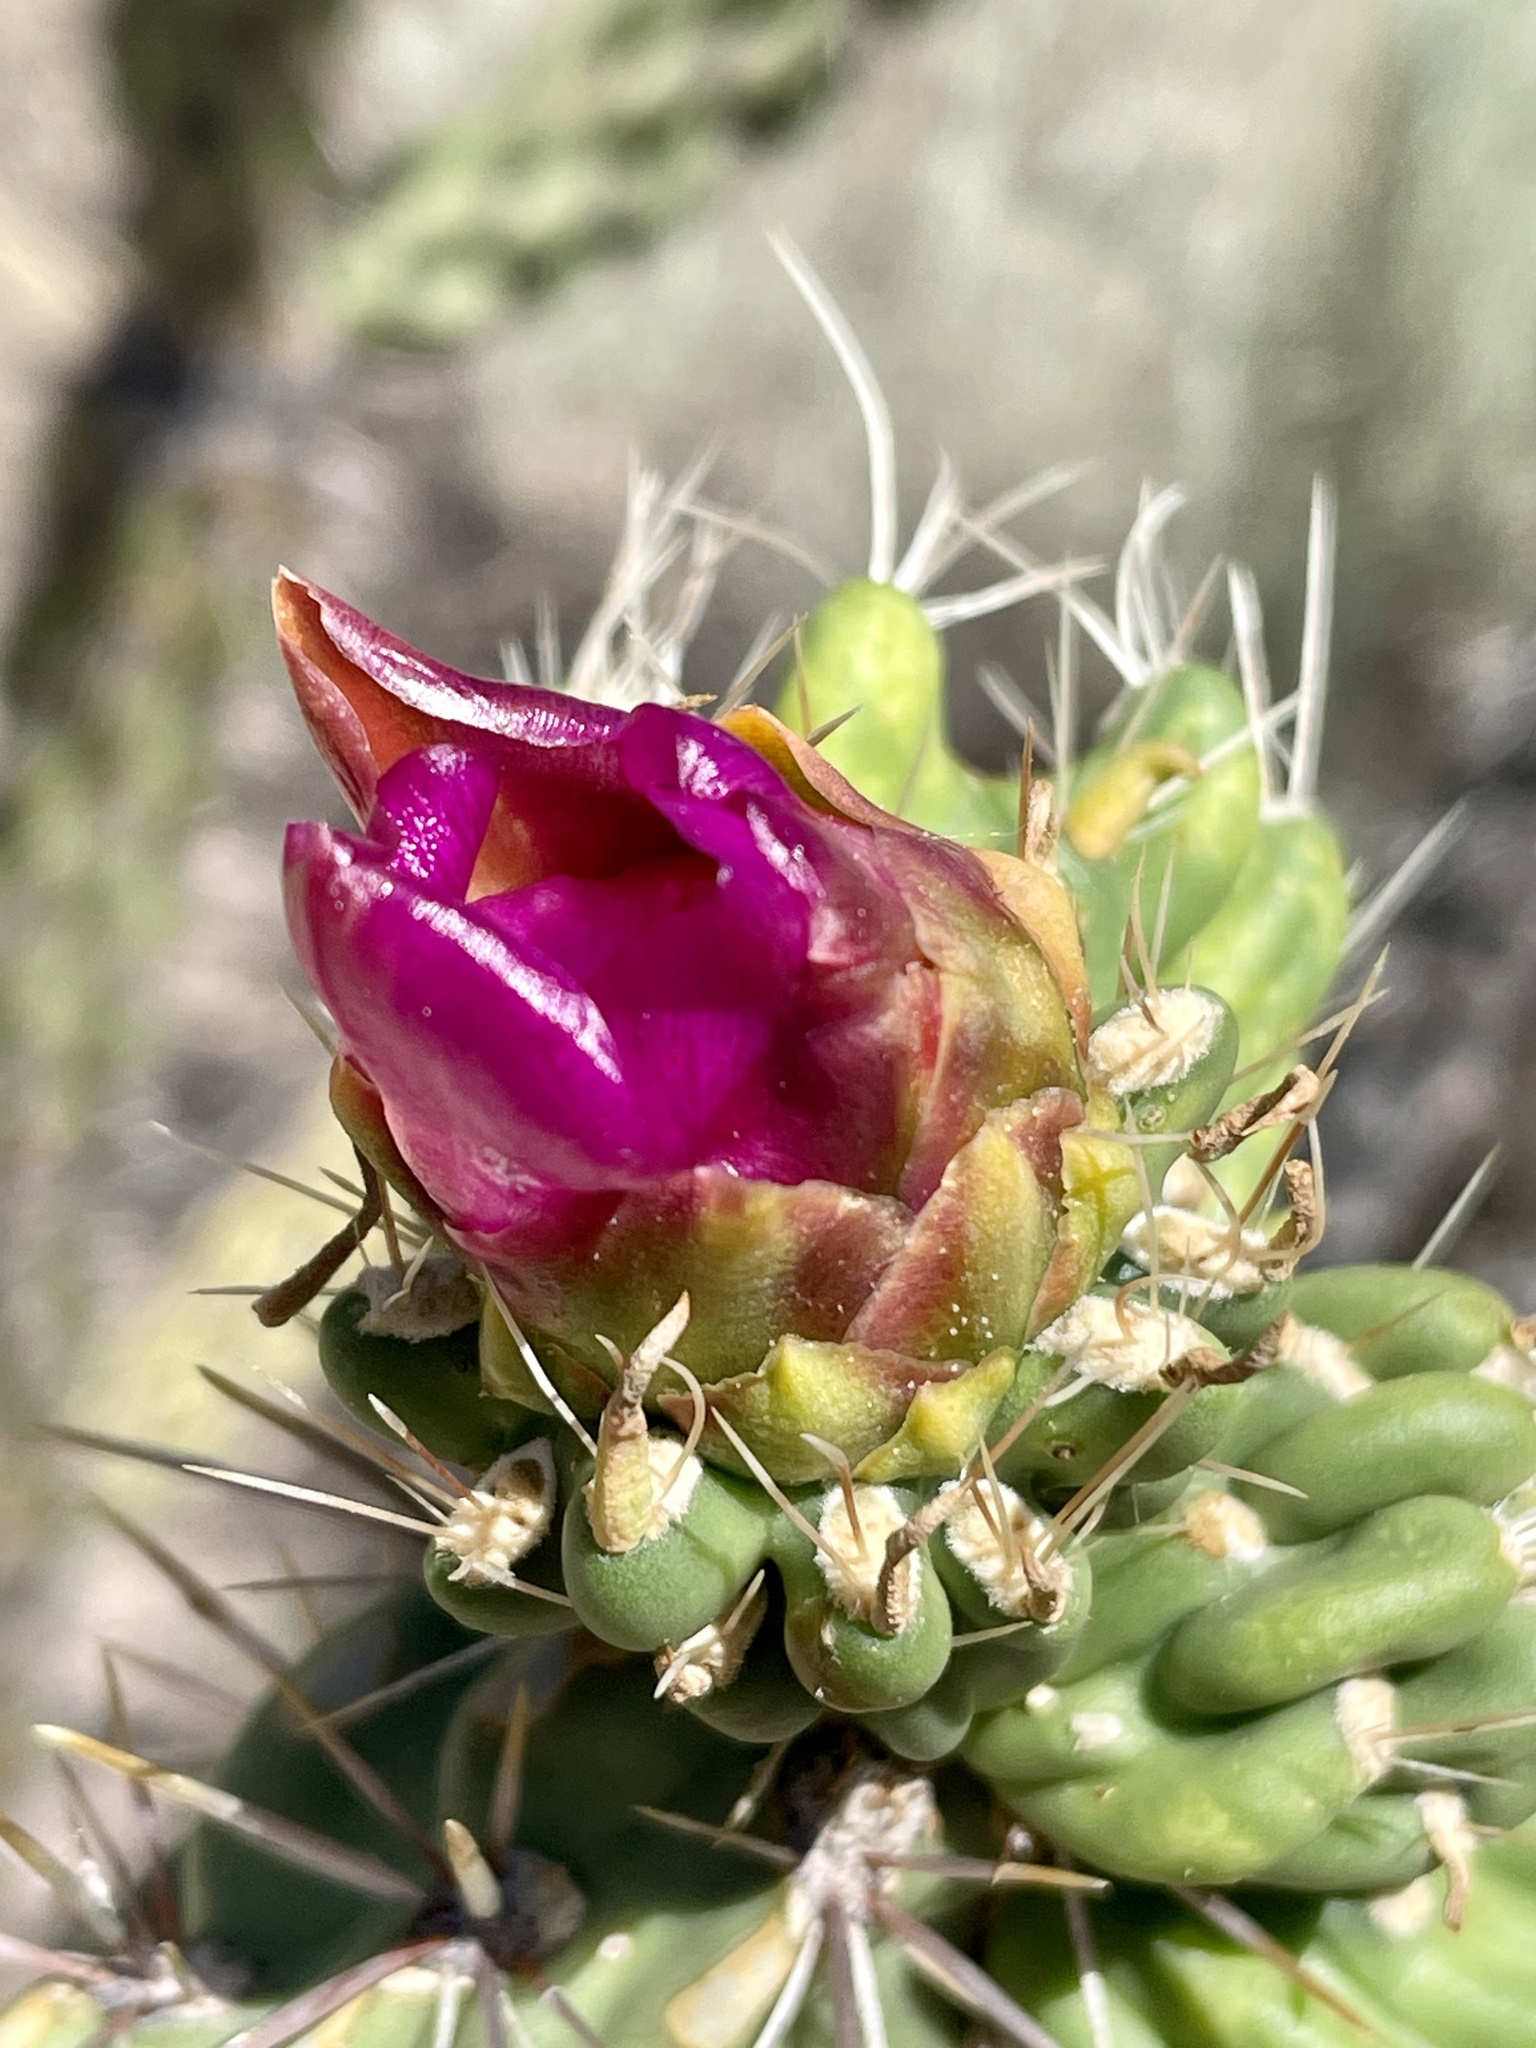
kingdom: Plantae
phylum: Tracheophyta
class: Magnoliopsida
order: Caryophyllales
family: Cactaceae
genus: Cylindropuntia
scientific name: Cylindropuntia imbricata
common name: Candelabrum cactus
